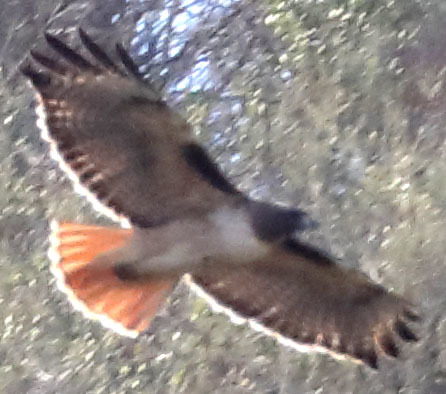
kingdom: Animalia
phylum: Chordata
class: Aves
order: Accipitriformes
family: Accipitridae
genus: Buteo
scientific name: Buteo jamaicensis
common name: Red-tailed hawk
